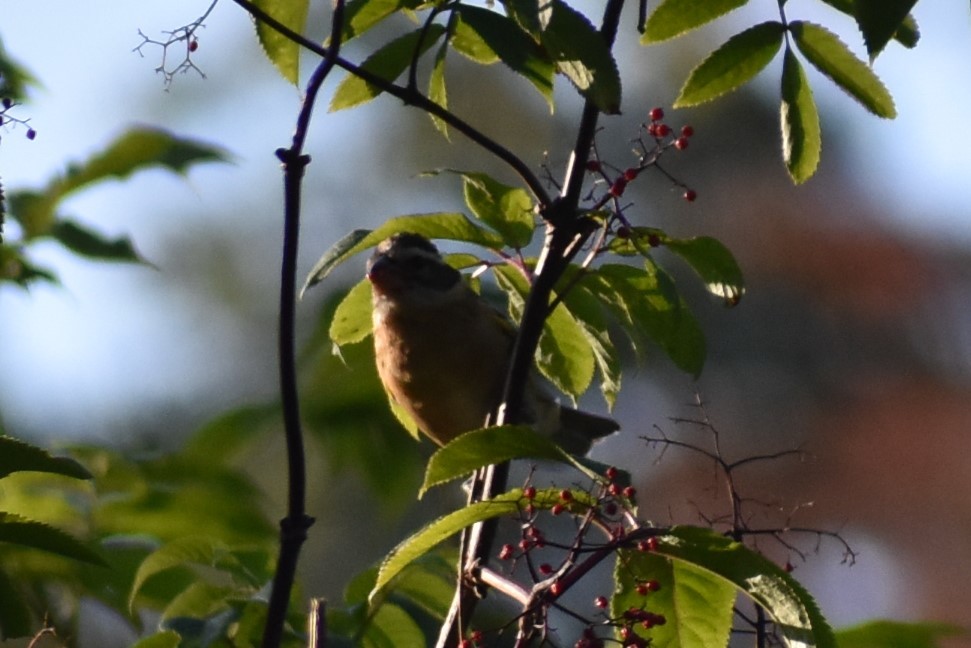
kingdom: Animalia
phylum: Chordata
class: Aves
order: Passeriformes
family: Cardinalidae
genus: Pheucticus
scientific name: Pheucticus melanocephalus
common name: Black-headed grosbeak
